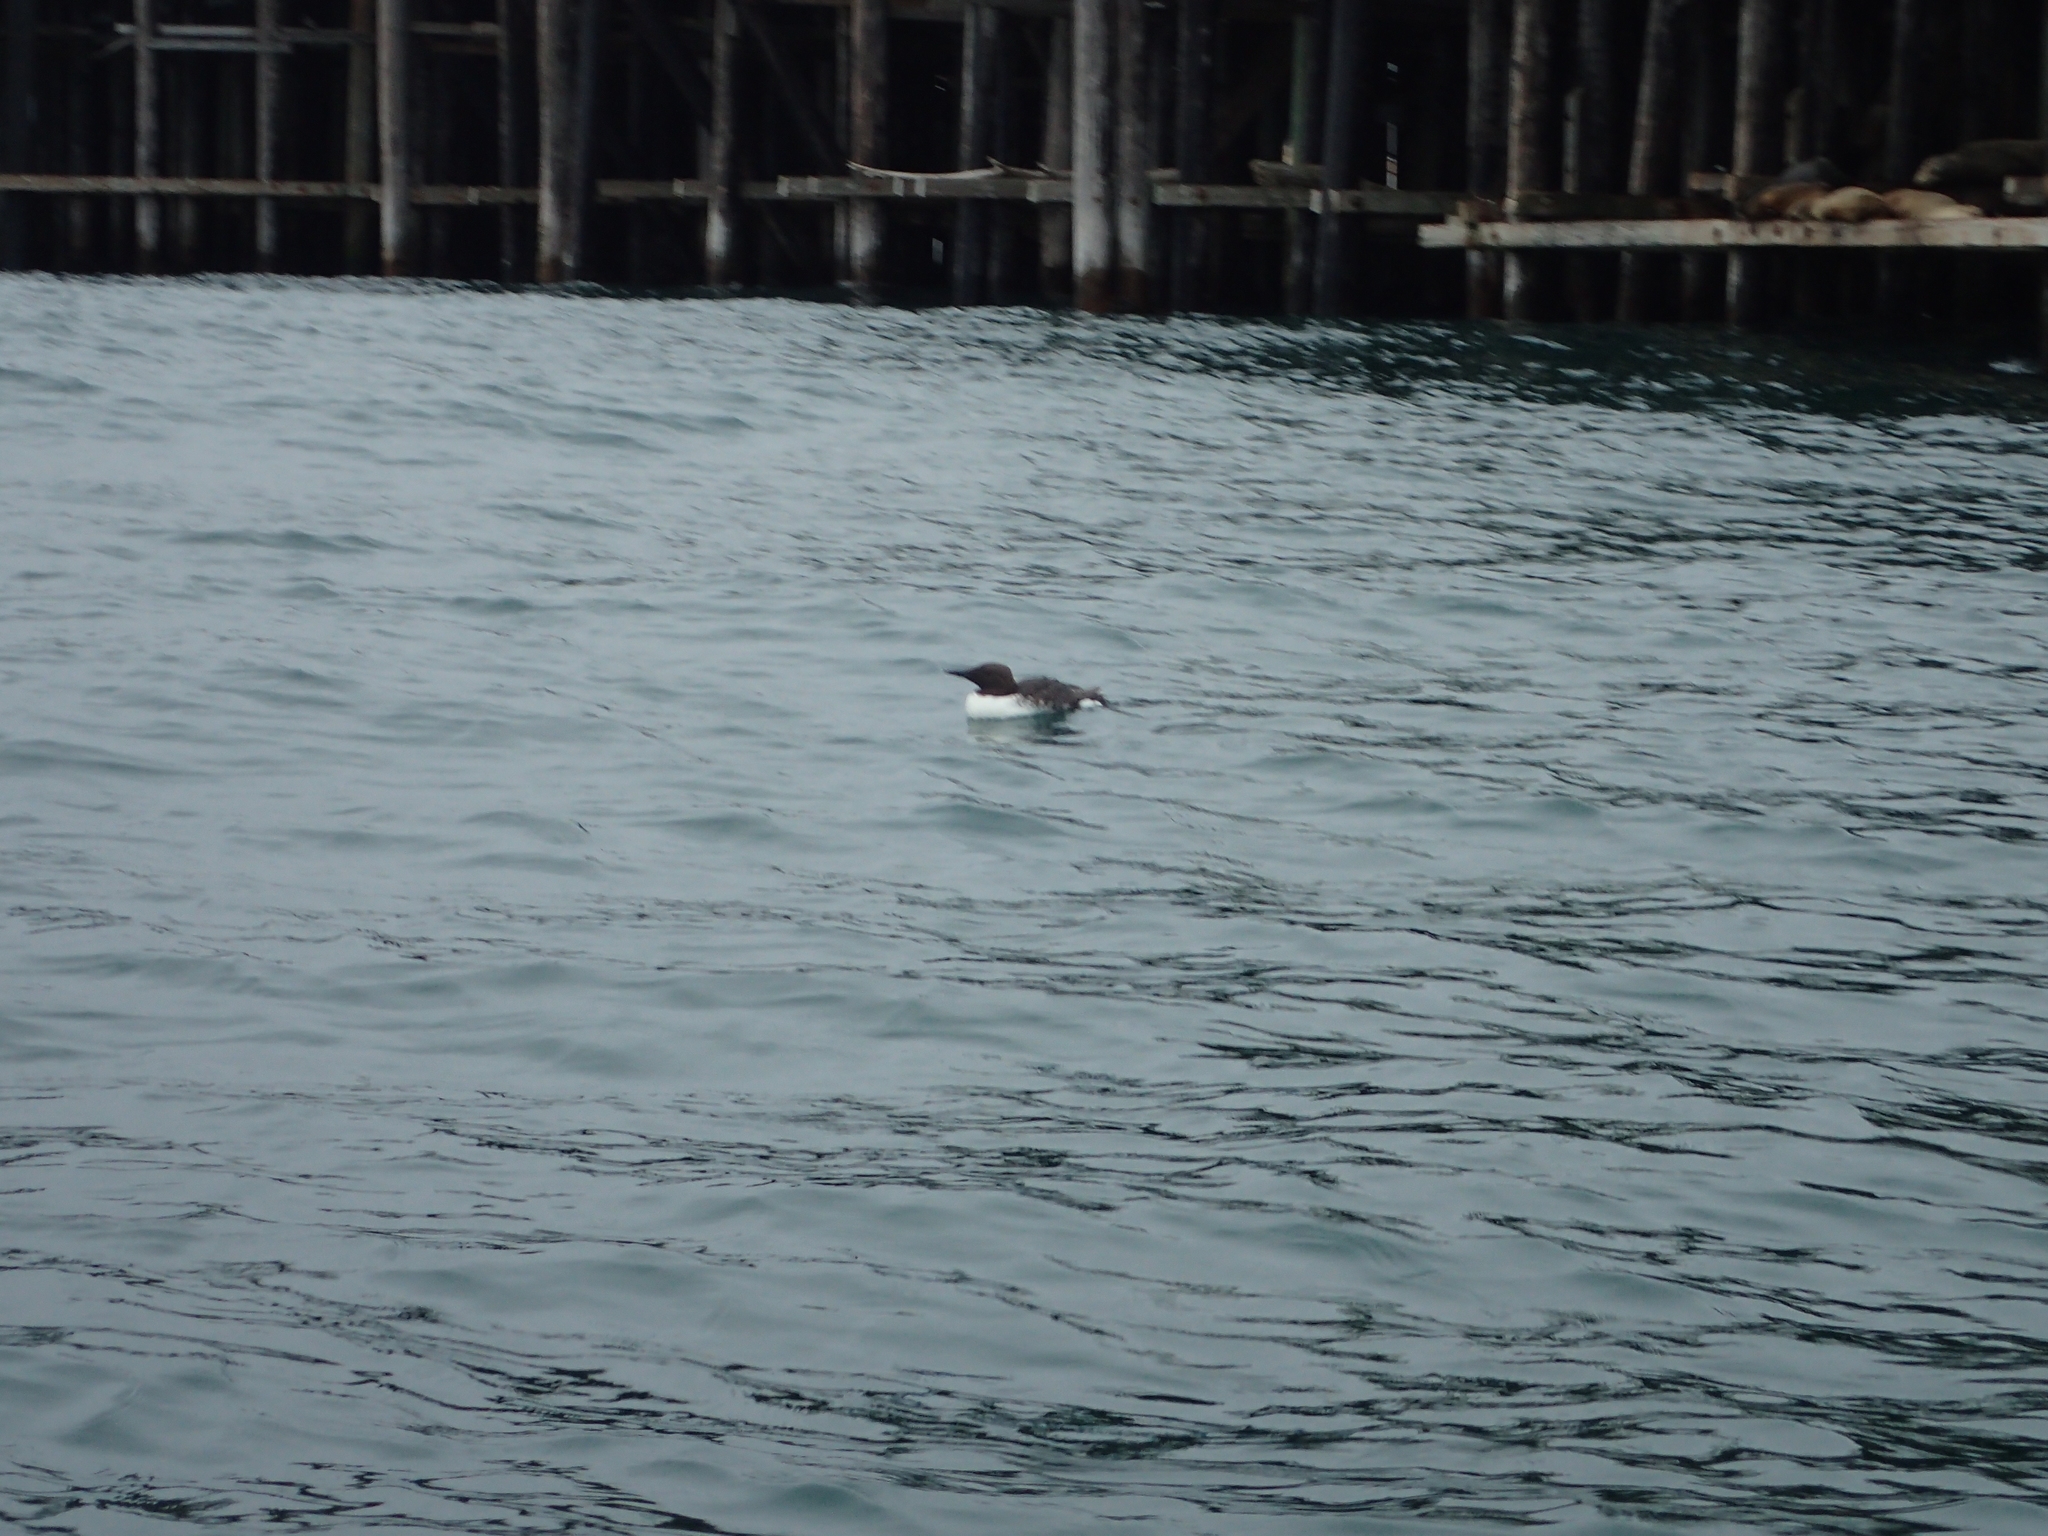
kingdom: Animalia
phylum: Chordata
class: Aves
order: Charadriiformes
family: Alcidae
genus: Uria
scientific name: Uria aalge
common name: Common murre
